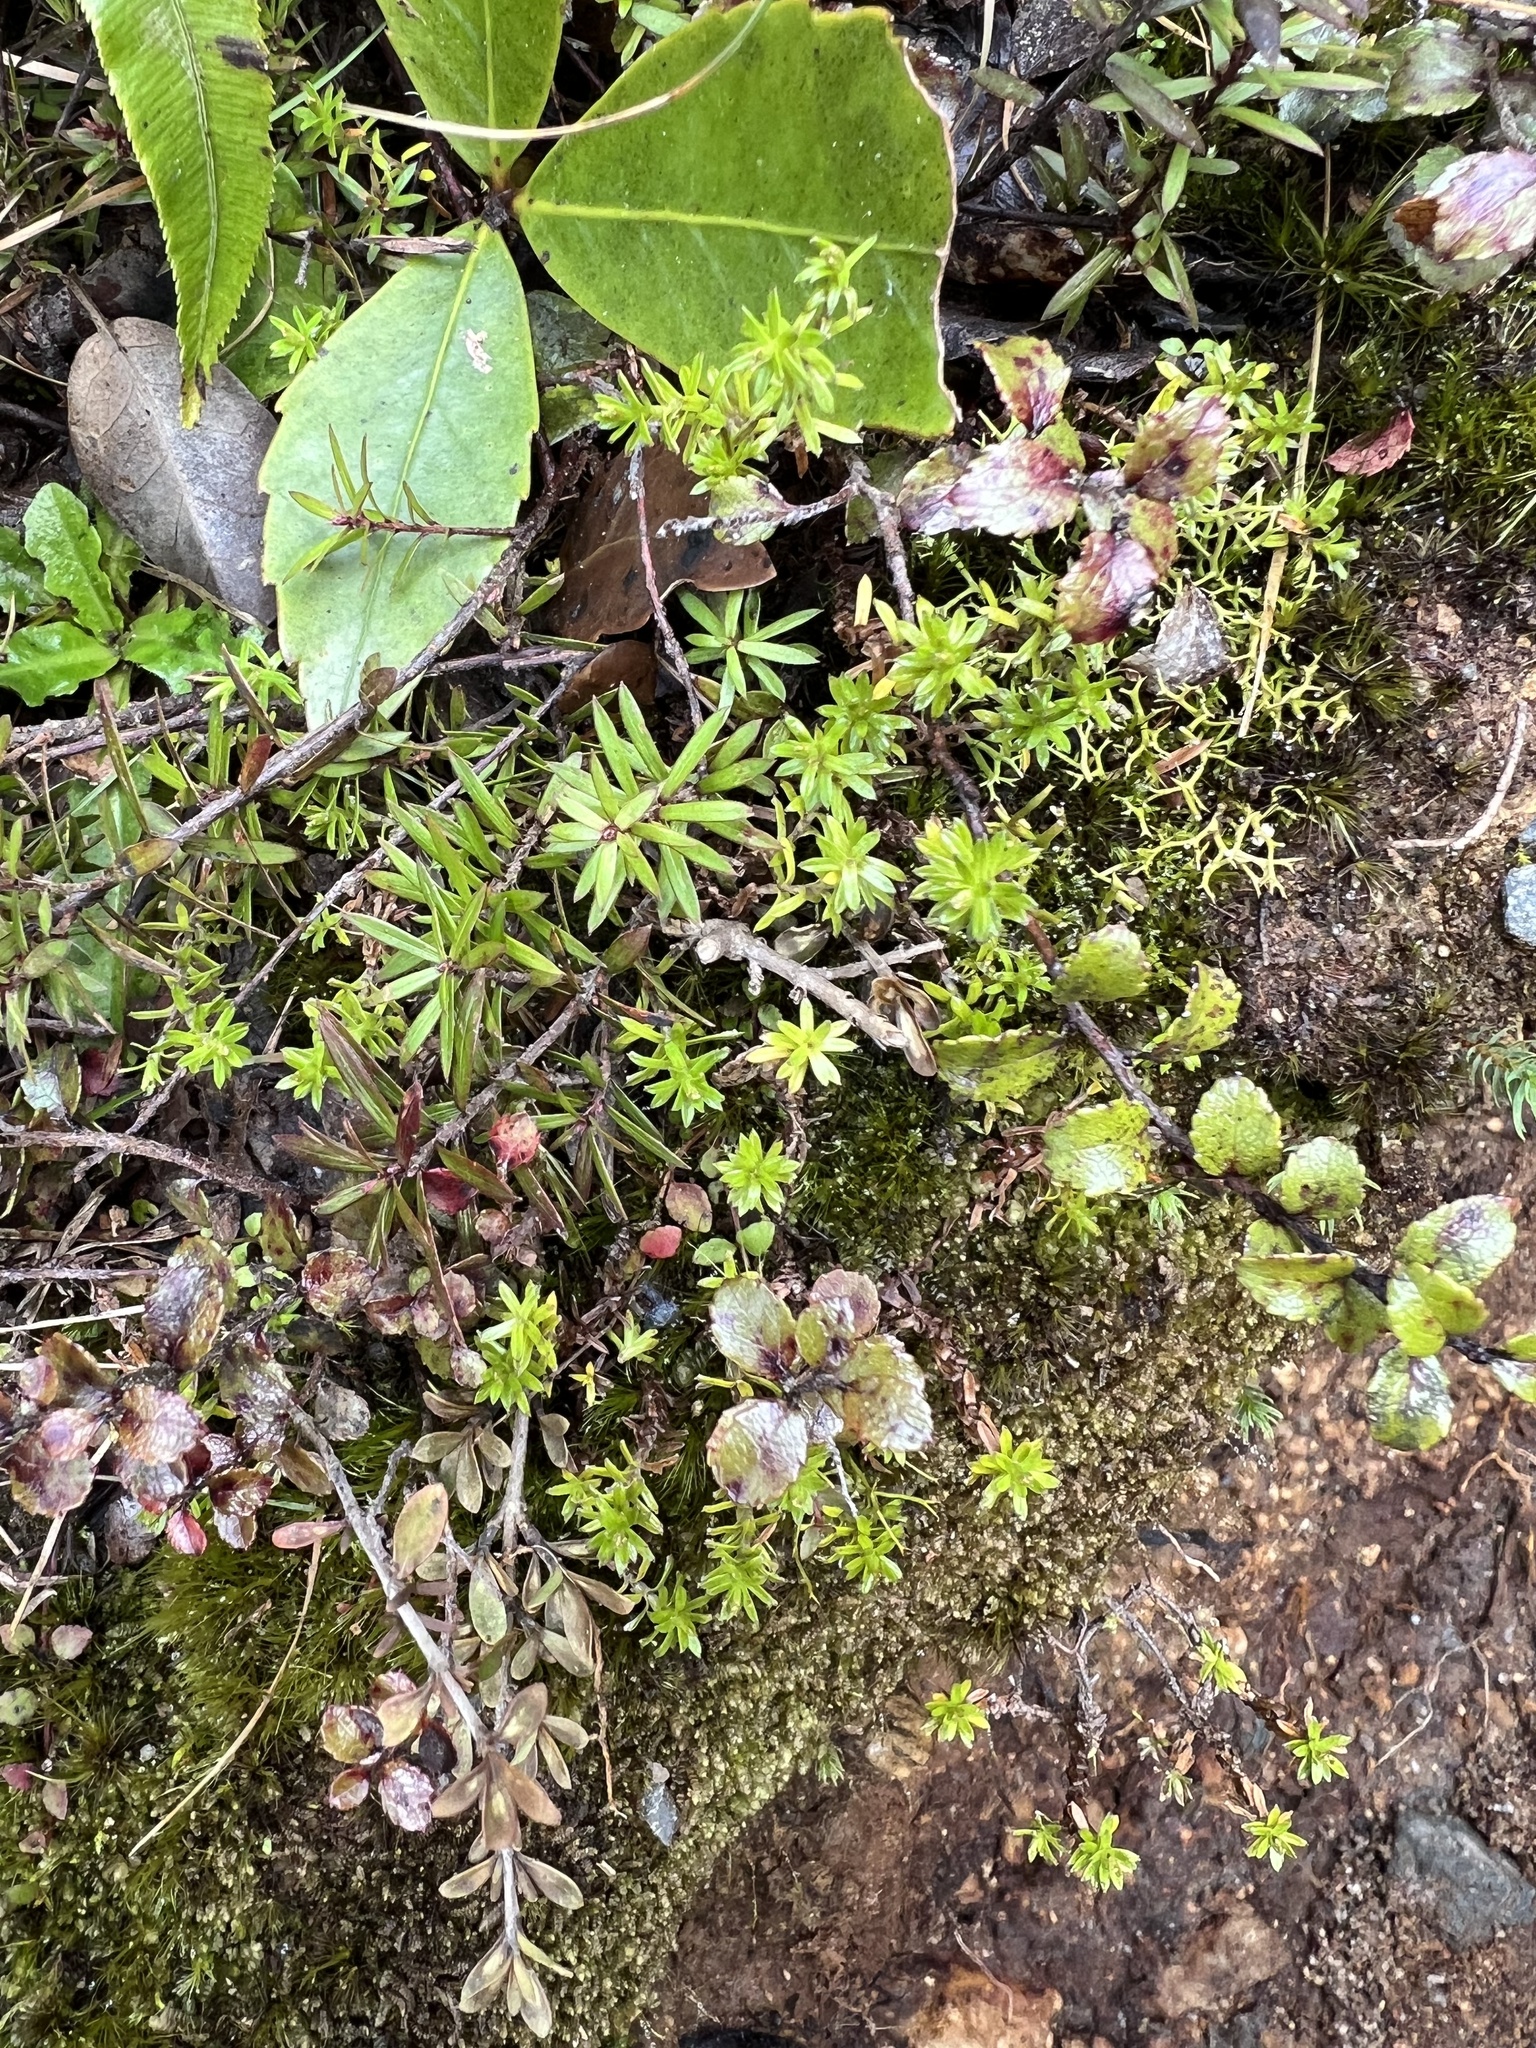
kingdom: Plantae
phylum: Tracheophyta
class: Magnoliopsida
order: Asterales
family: Asteraceae
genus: Raoulia
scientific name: Raoulia glabra
